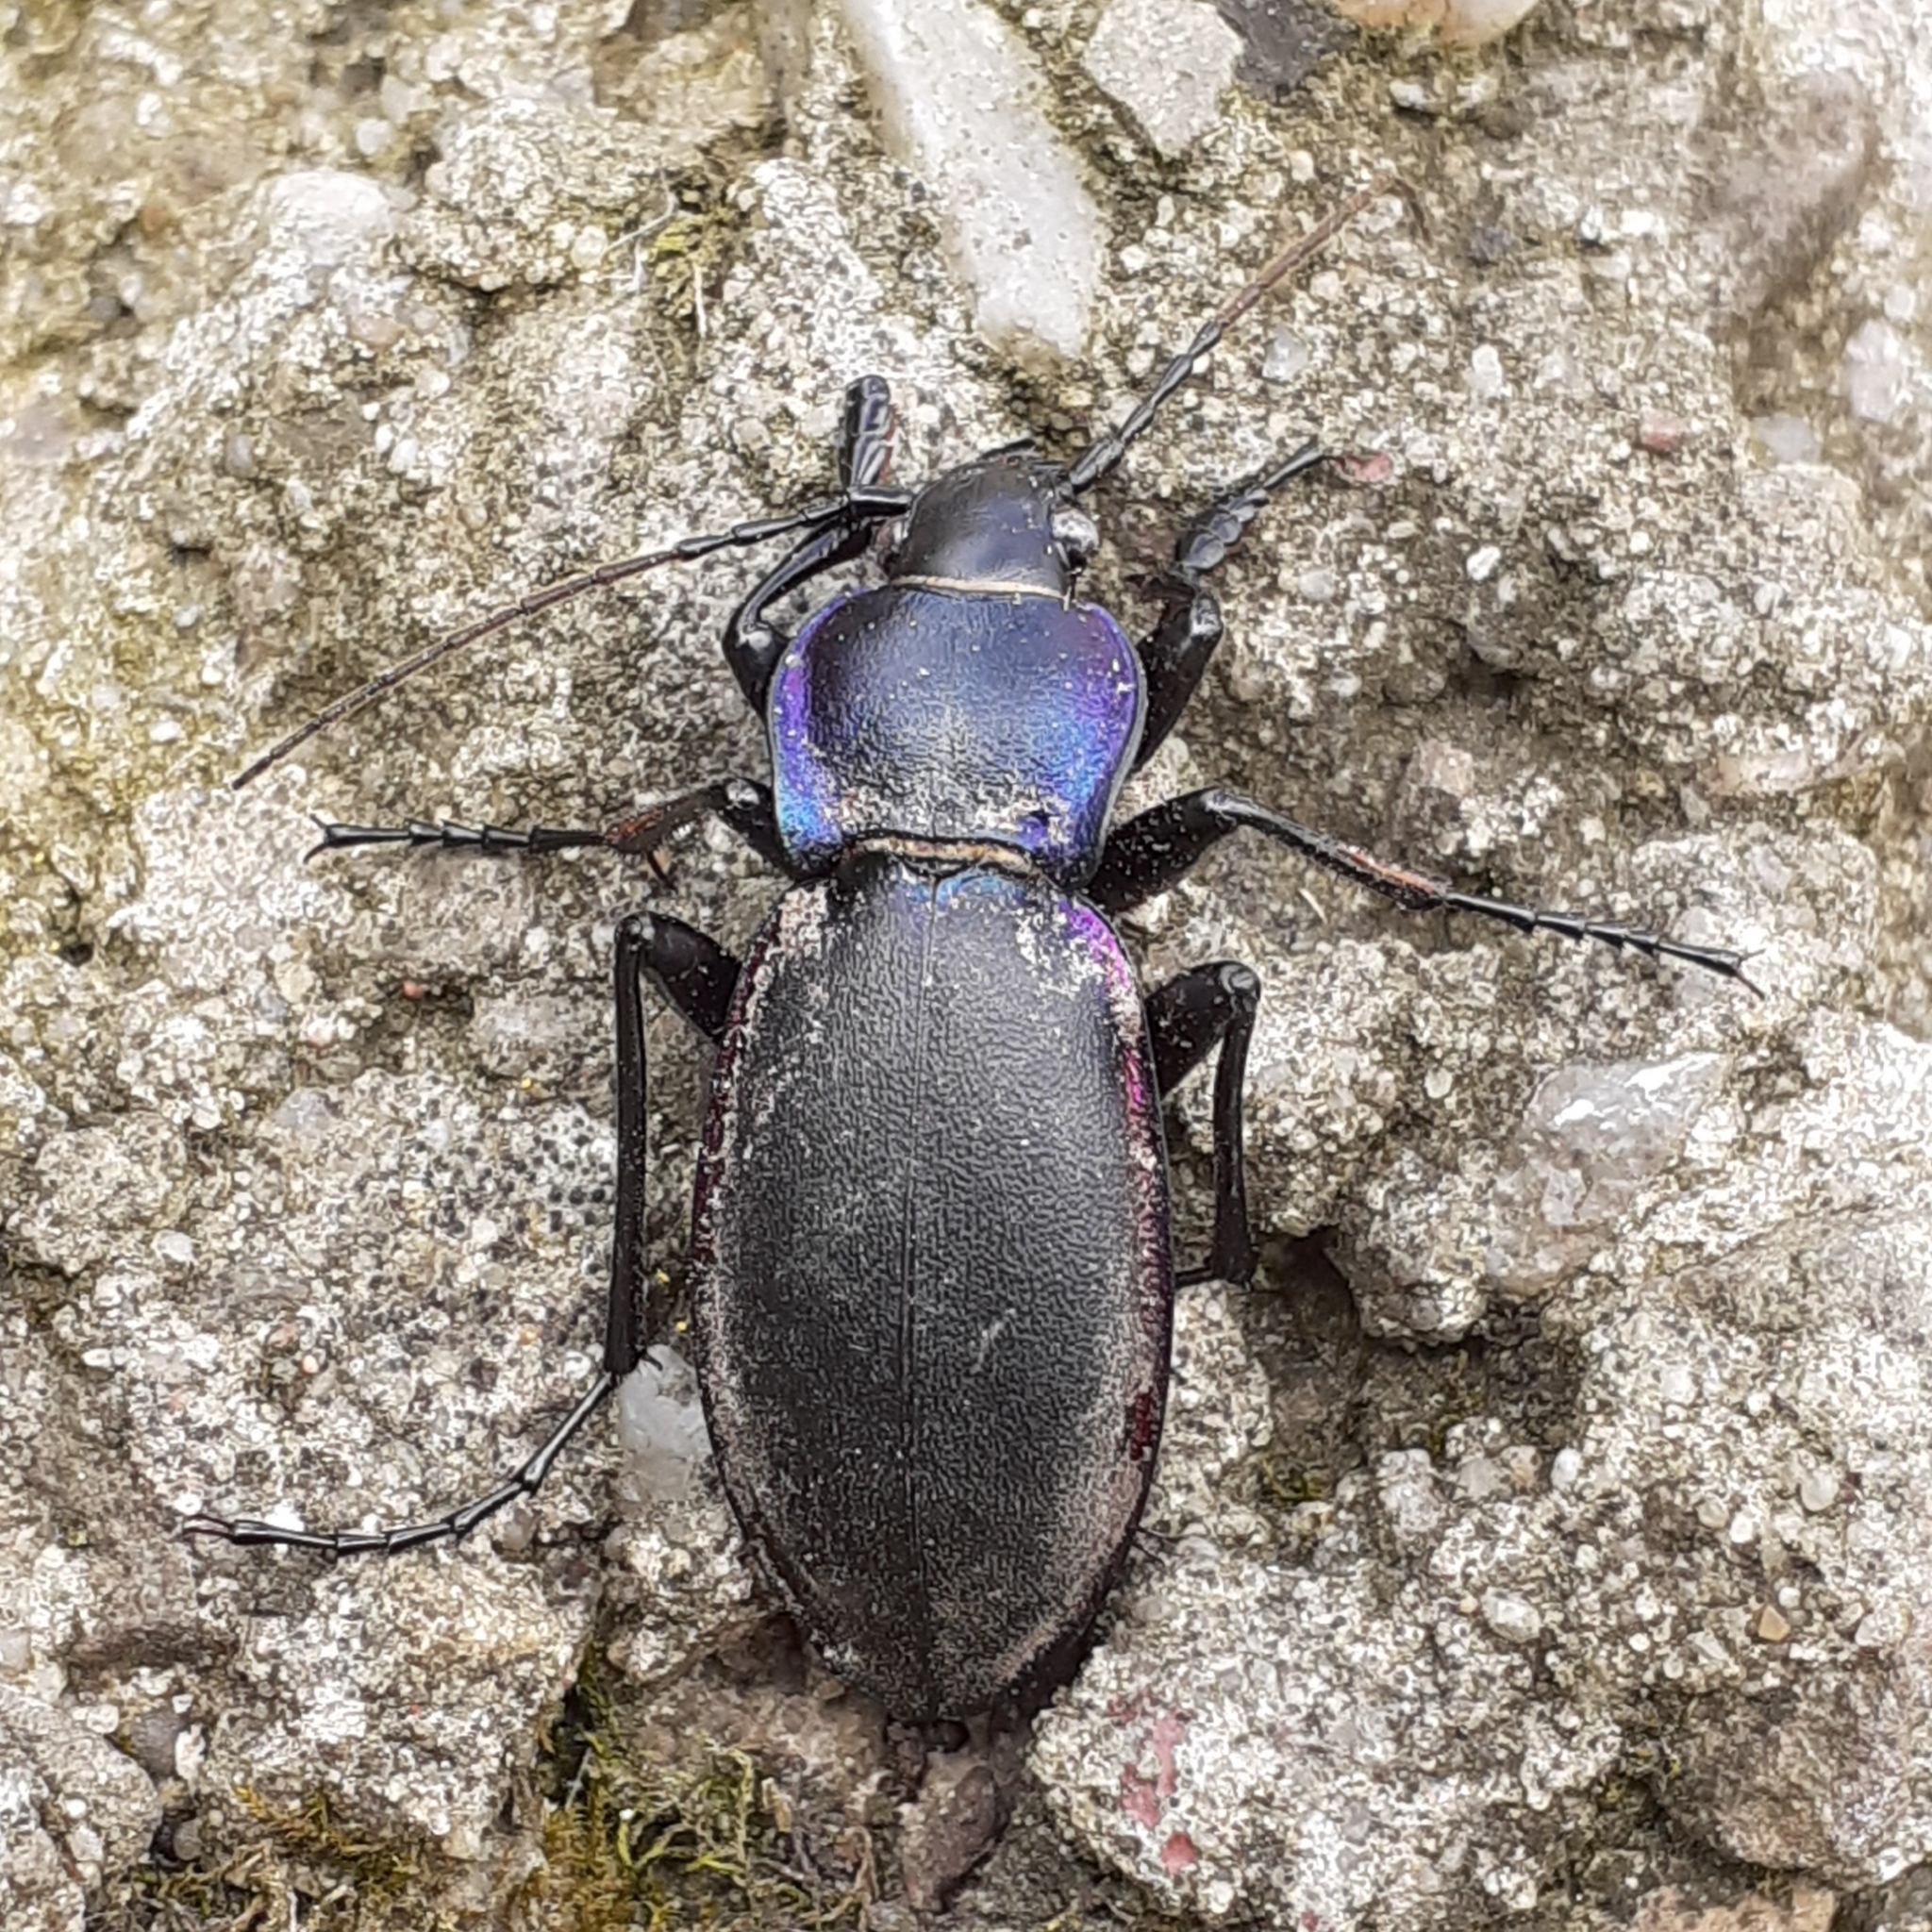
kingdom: Animalia
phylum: Arthropoda
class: Insecta
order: Coleoptera
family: Carabidae
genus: Carabus
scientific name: Carabus violaceus
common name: Violet ground beetle
